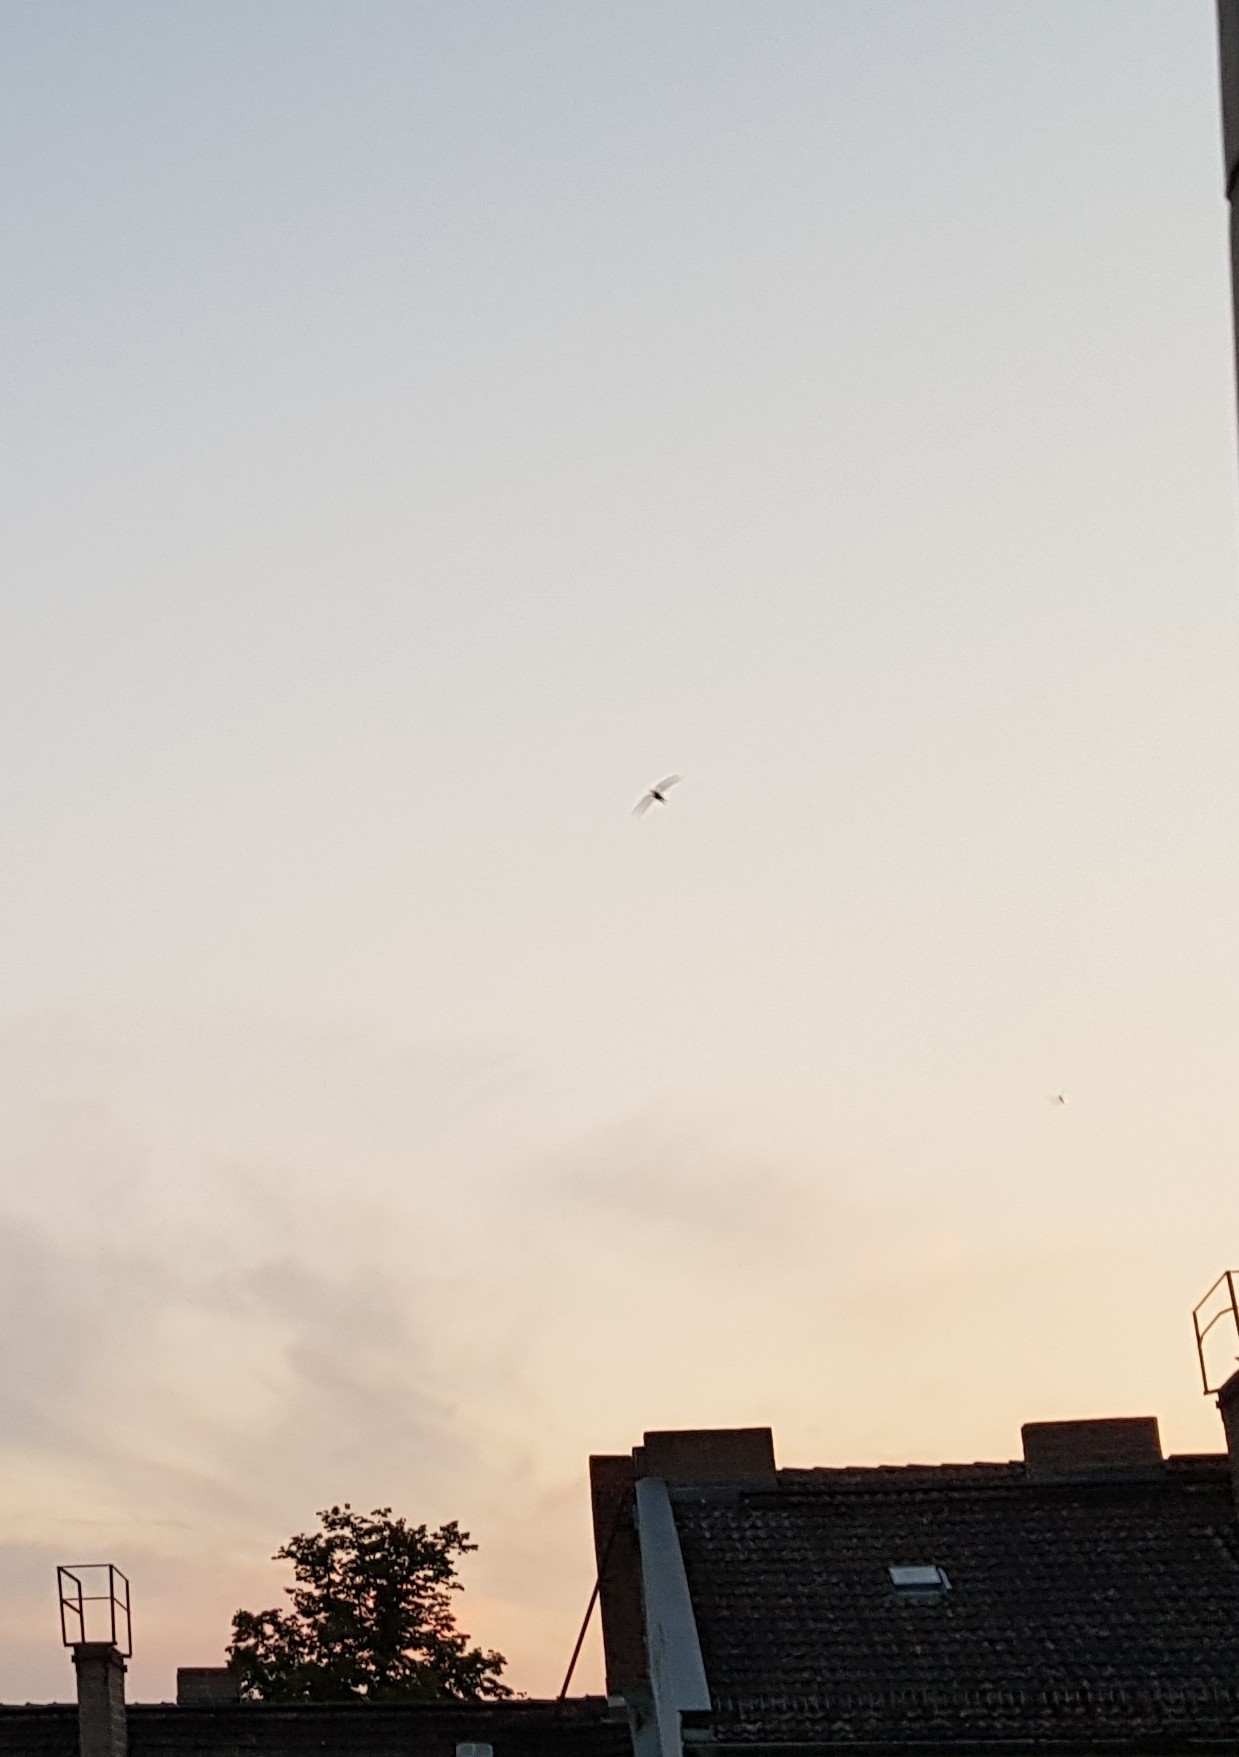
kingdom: Animalia
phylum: Chordata
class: Aves
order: Apodiformes
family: Apodidae
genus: Apus
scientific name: Apus apus
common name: Common swift
